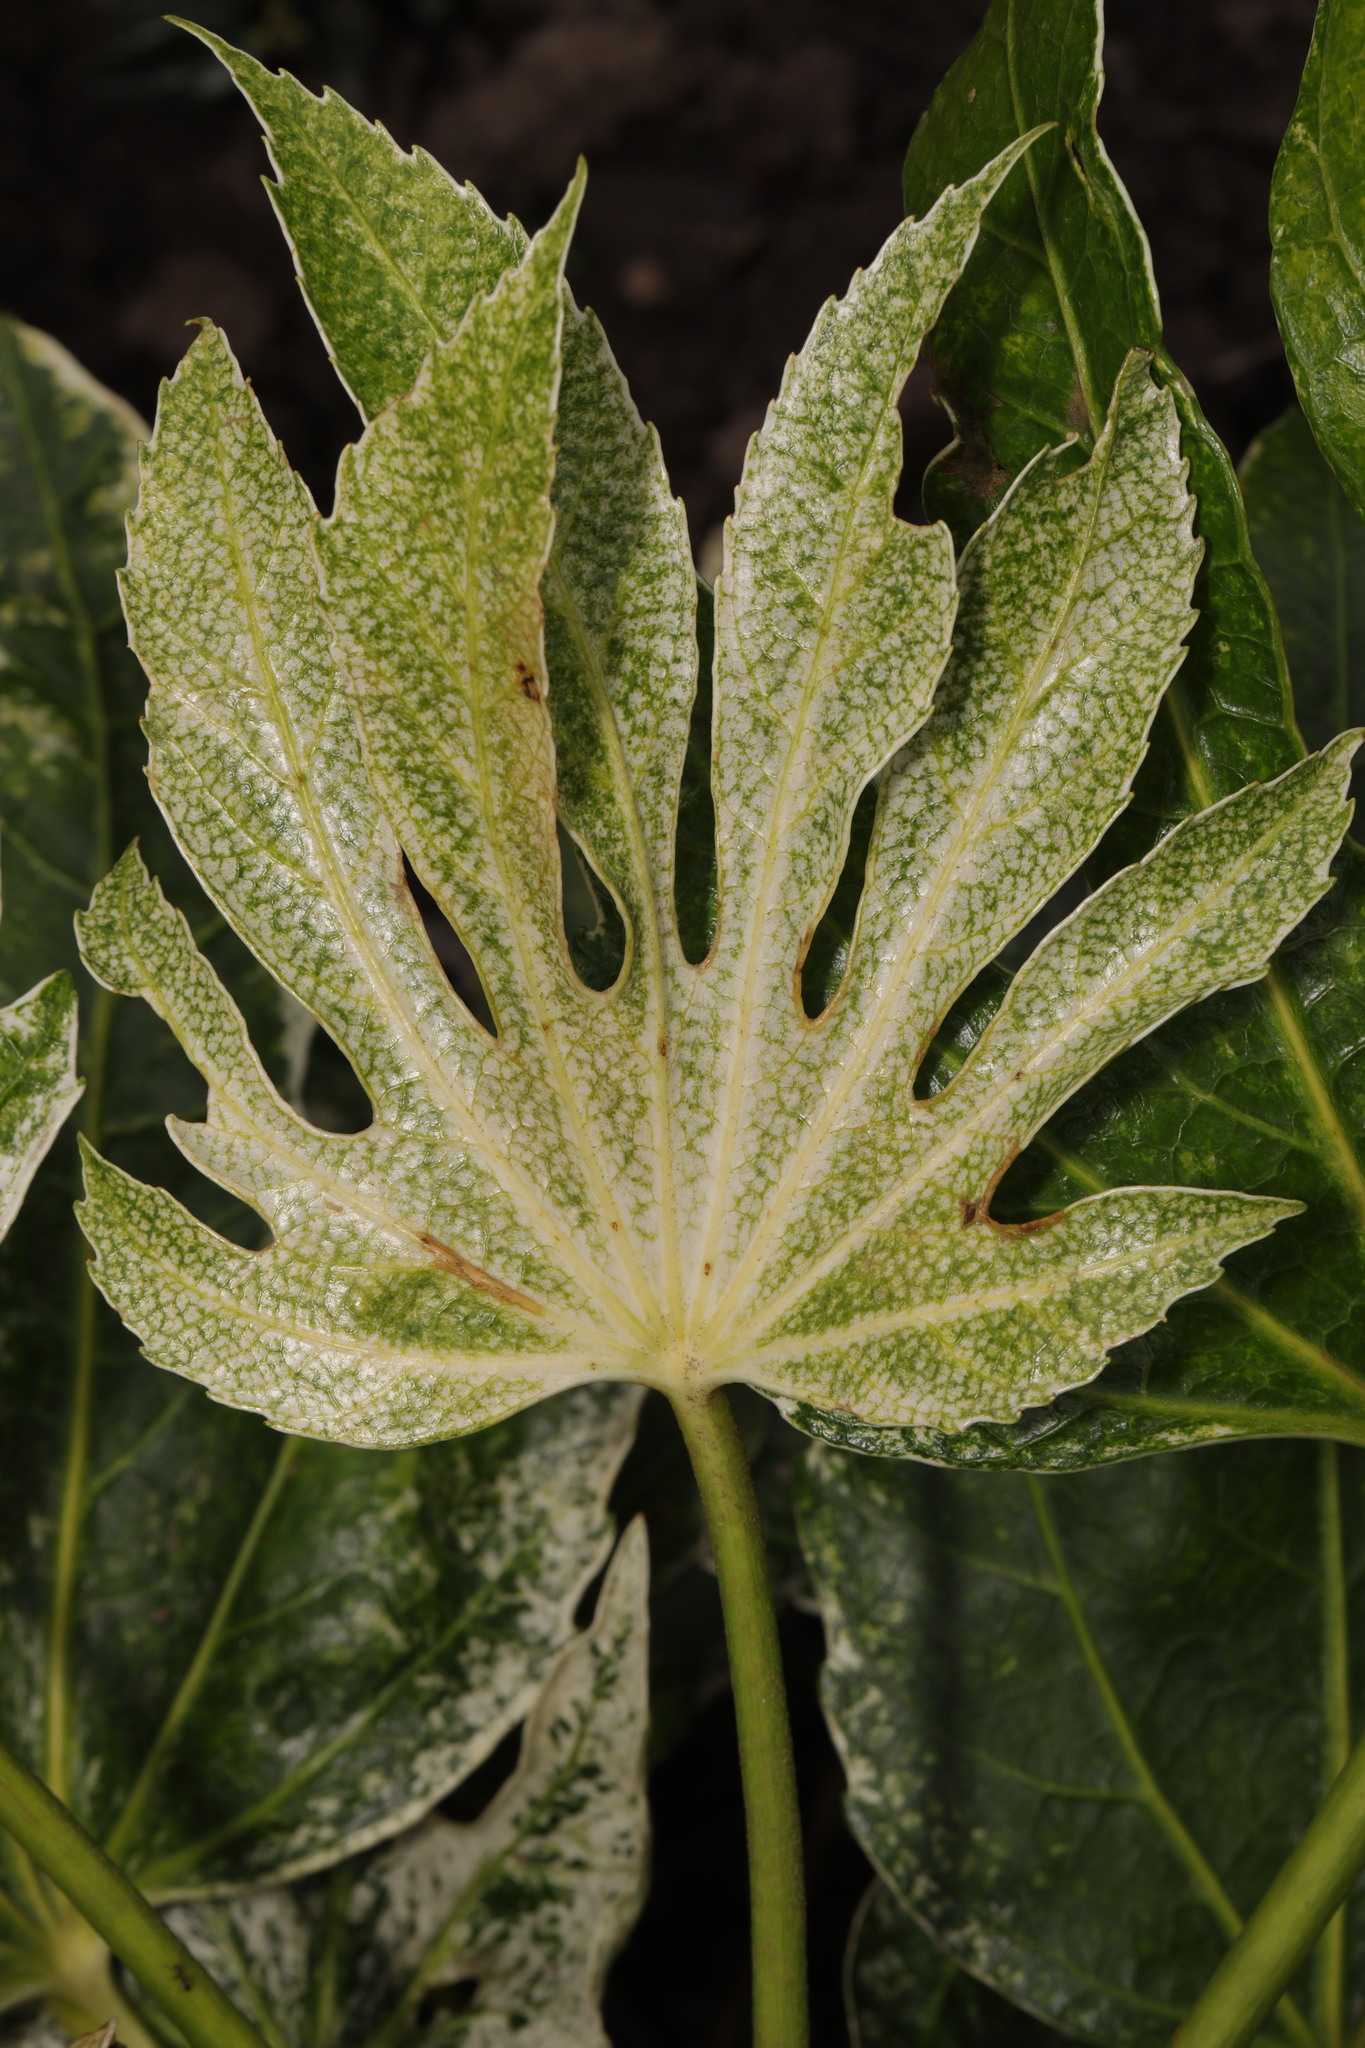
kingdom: Plantae
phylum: Tracheophyta
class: Magnoliopsida
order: Apiales
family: Araliaceae
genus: Fatsia
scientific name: Fatsia japonica
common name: Fatsia
